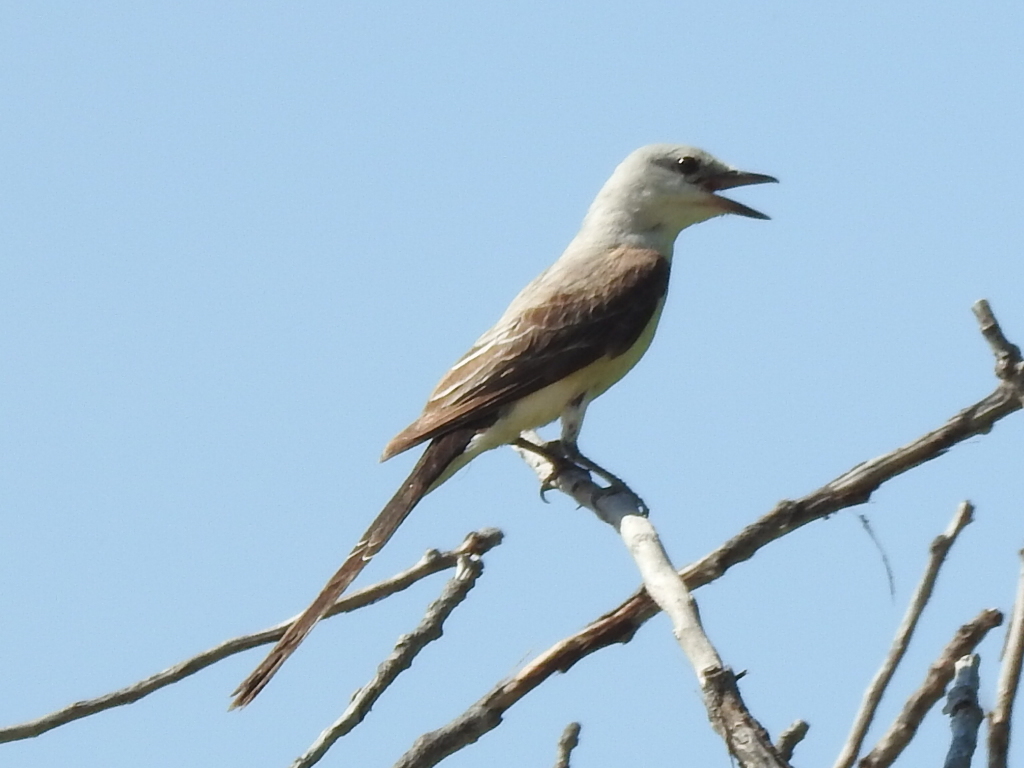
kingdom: Animalia
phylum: Chordata
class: Aves
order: Passeriformes
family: Tyrannidae
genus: Tyrannus
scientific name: Tyrannus forficatus
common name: Scissor-tailed flycatcher
